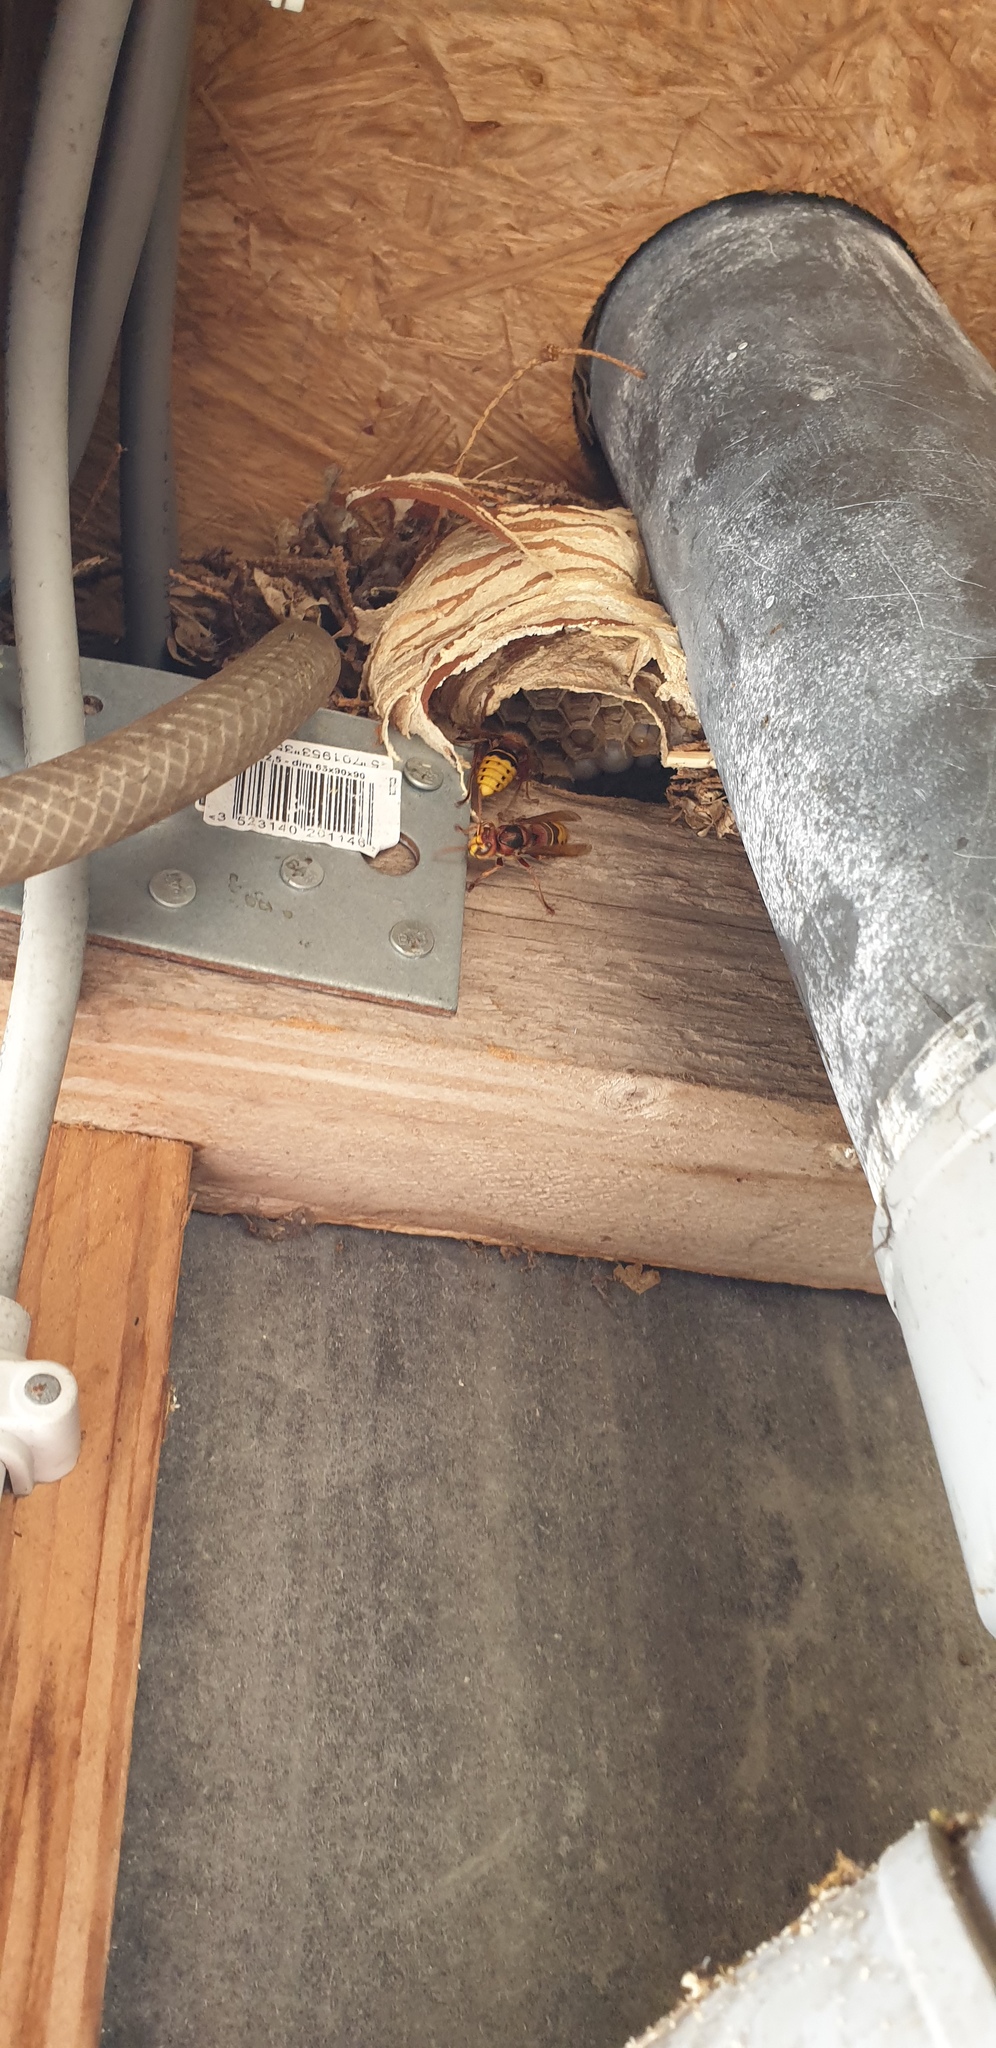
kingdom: Animalia
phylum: Arthropoda
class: Insecta
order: Hymenoptera
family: Vespidae
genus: Vespa
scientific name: Vespa crabro
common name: Hornet
